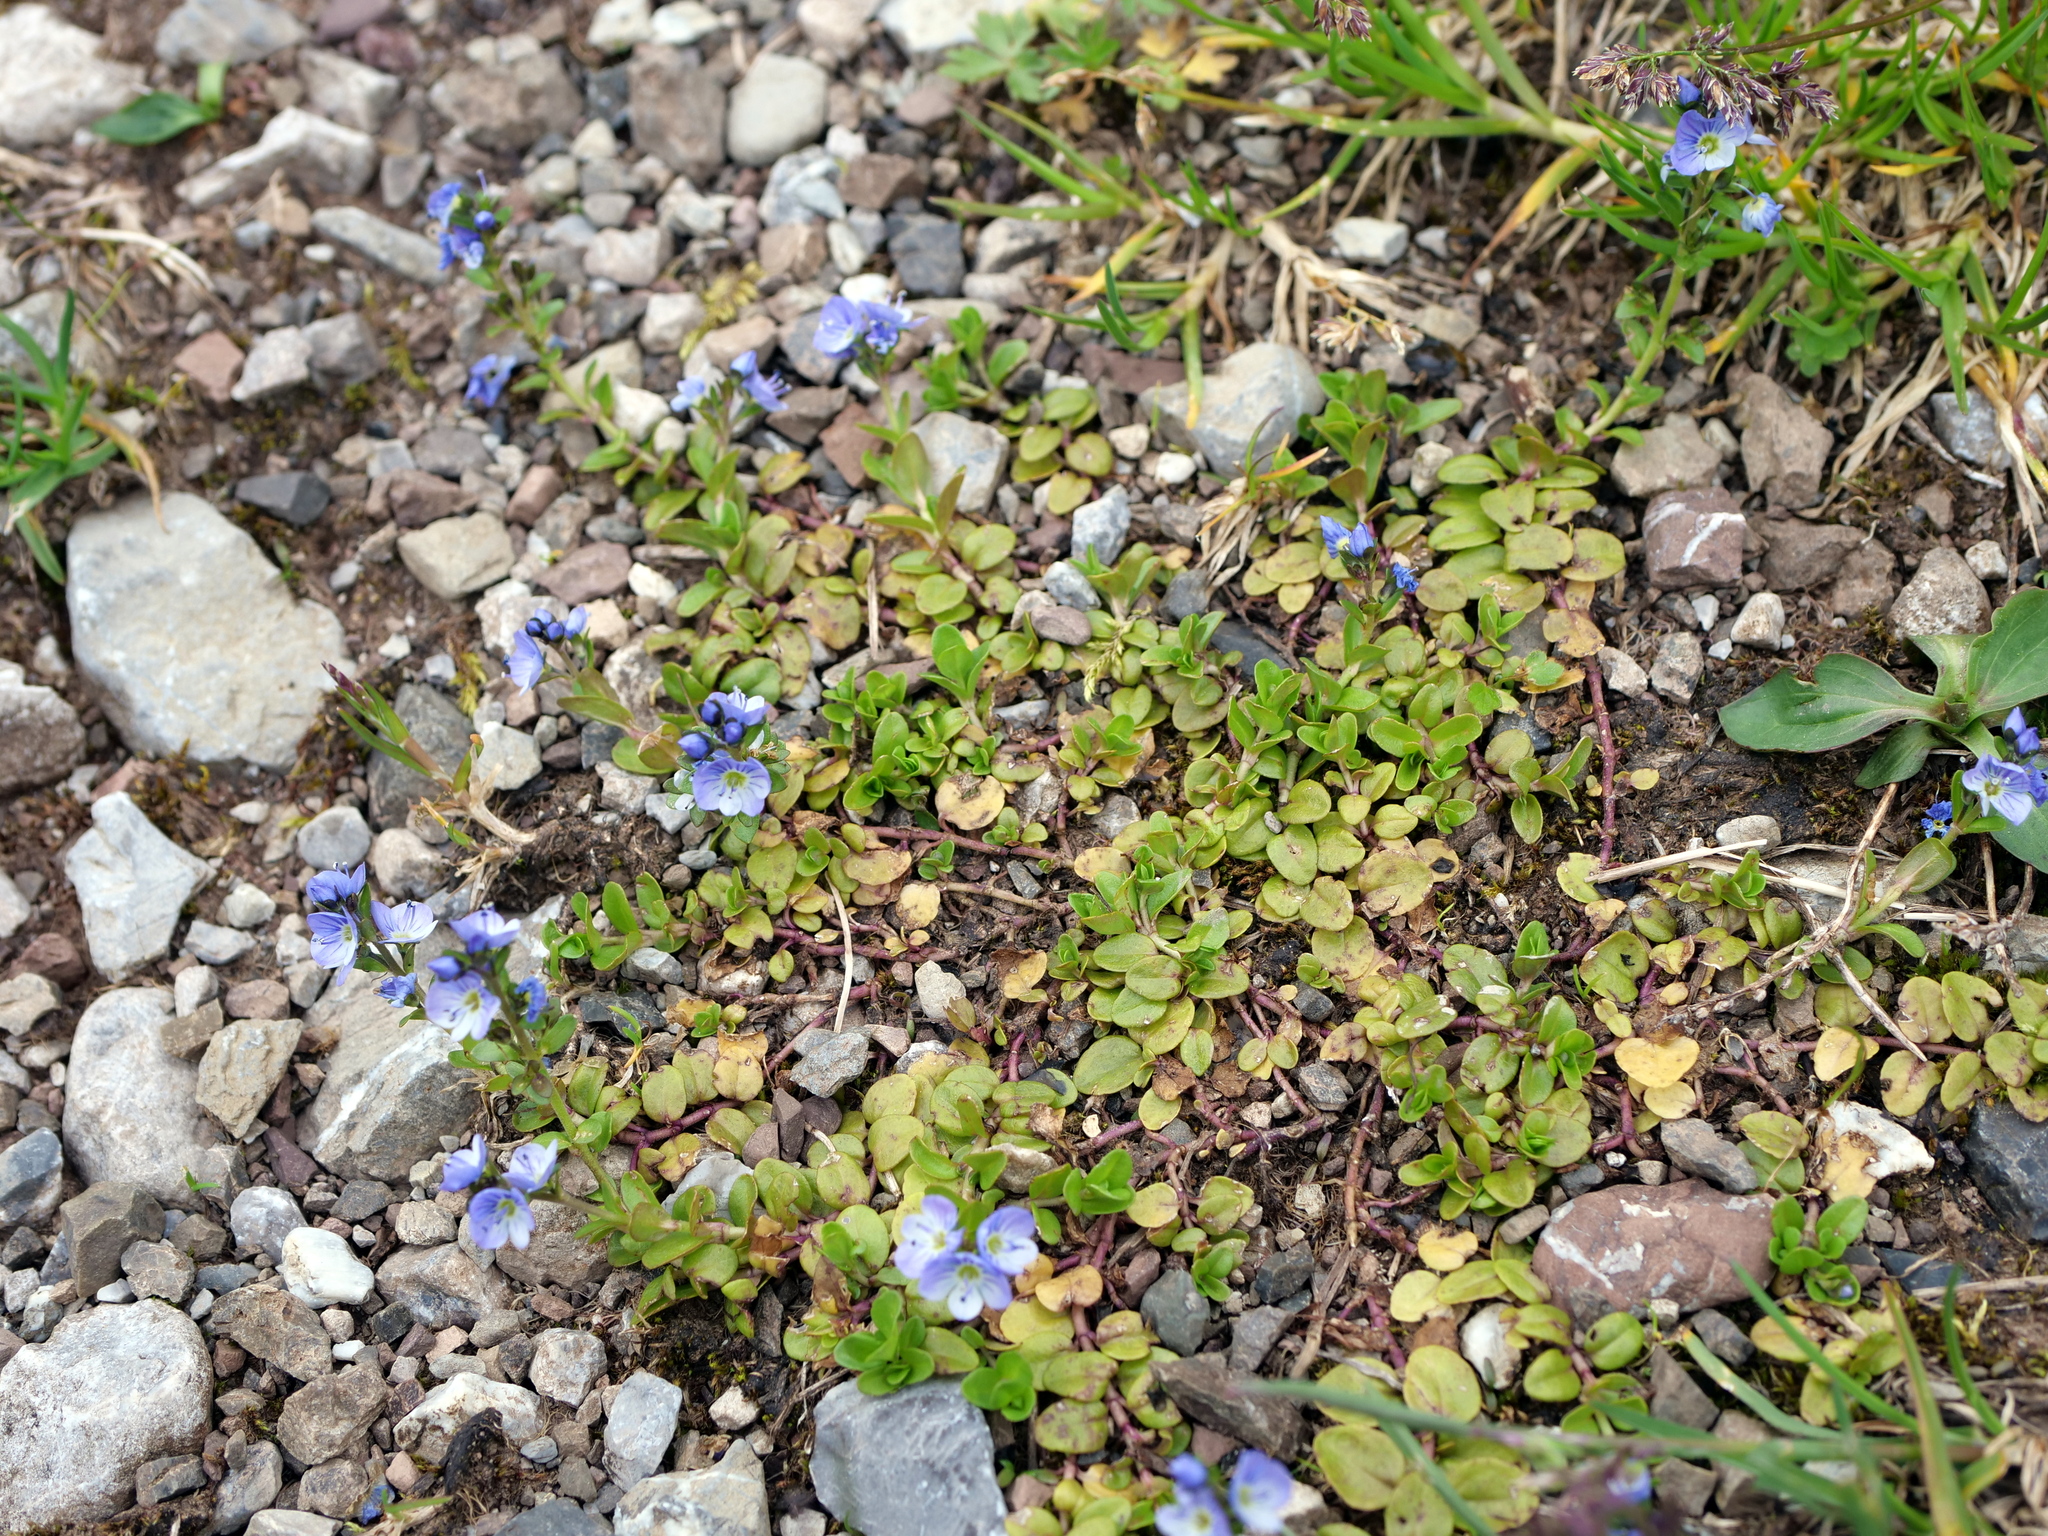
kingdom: Plantae
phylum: Tracheophyta
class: Magnoliopsida
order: Lamiales
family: Plantaginaceae
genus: Veronica
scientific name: Veronica serpyllifolia
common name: Thyme-leaved speedwell
